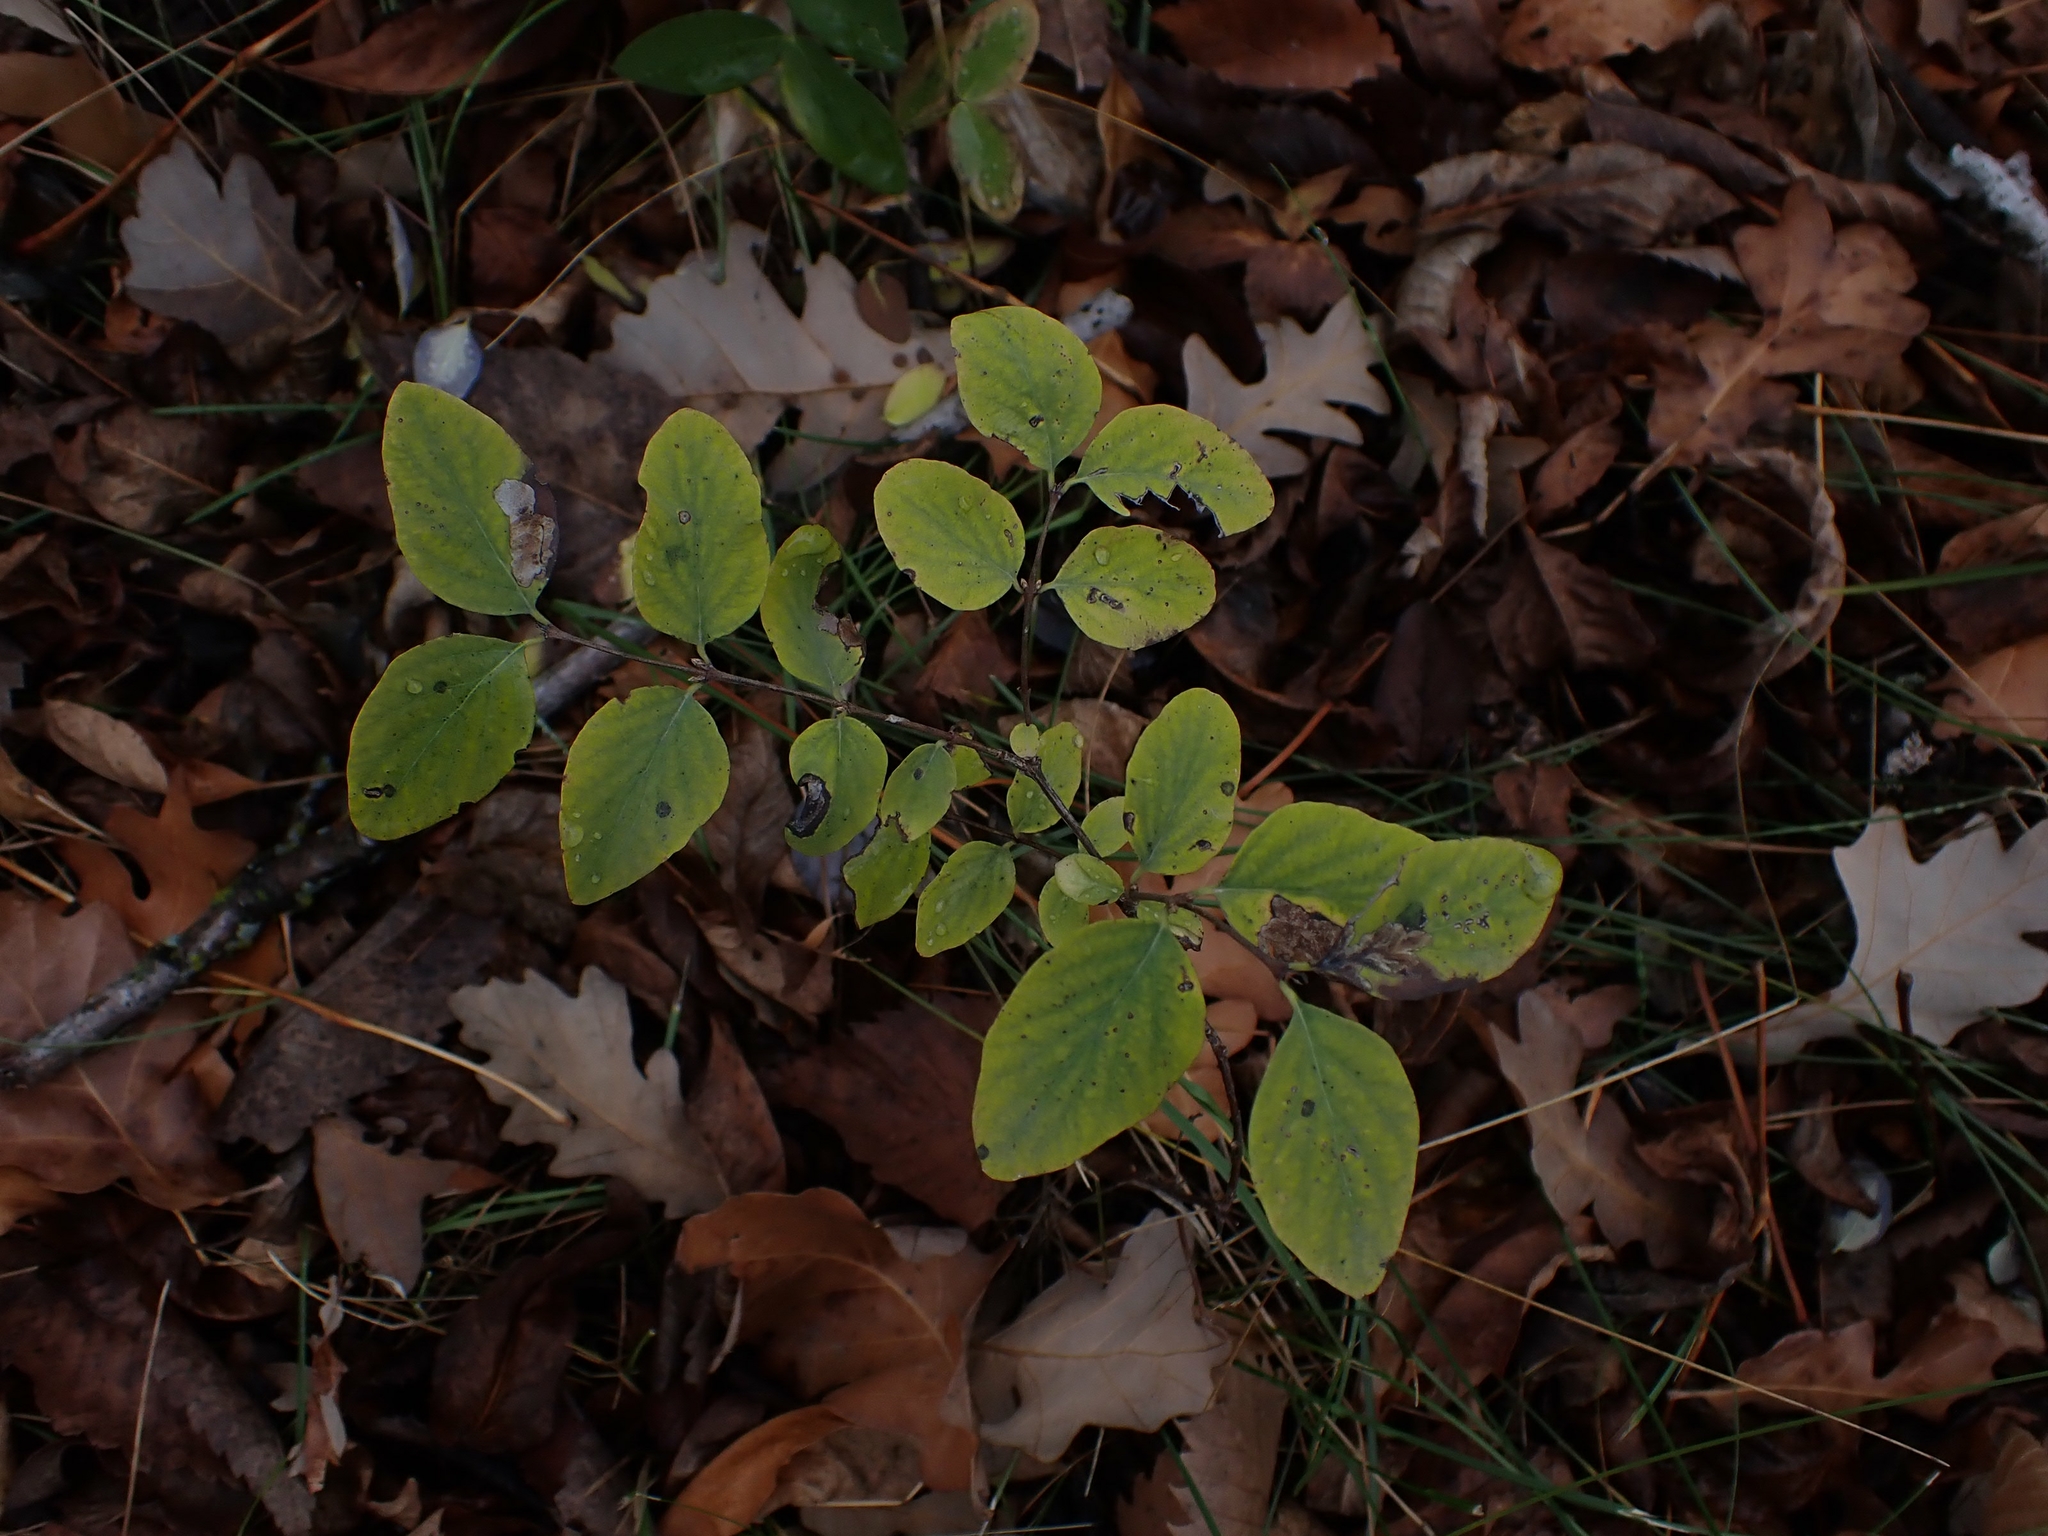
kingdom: Plantae
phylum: Tracheophyta
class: Magnoliopsida
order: Dipsacales
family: Caprifoliaceae
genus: Symphoricarpos
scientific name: Symphoricarpos albus
